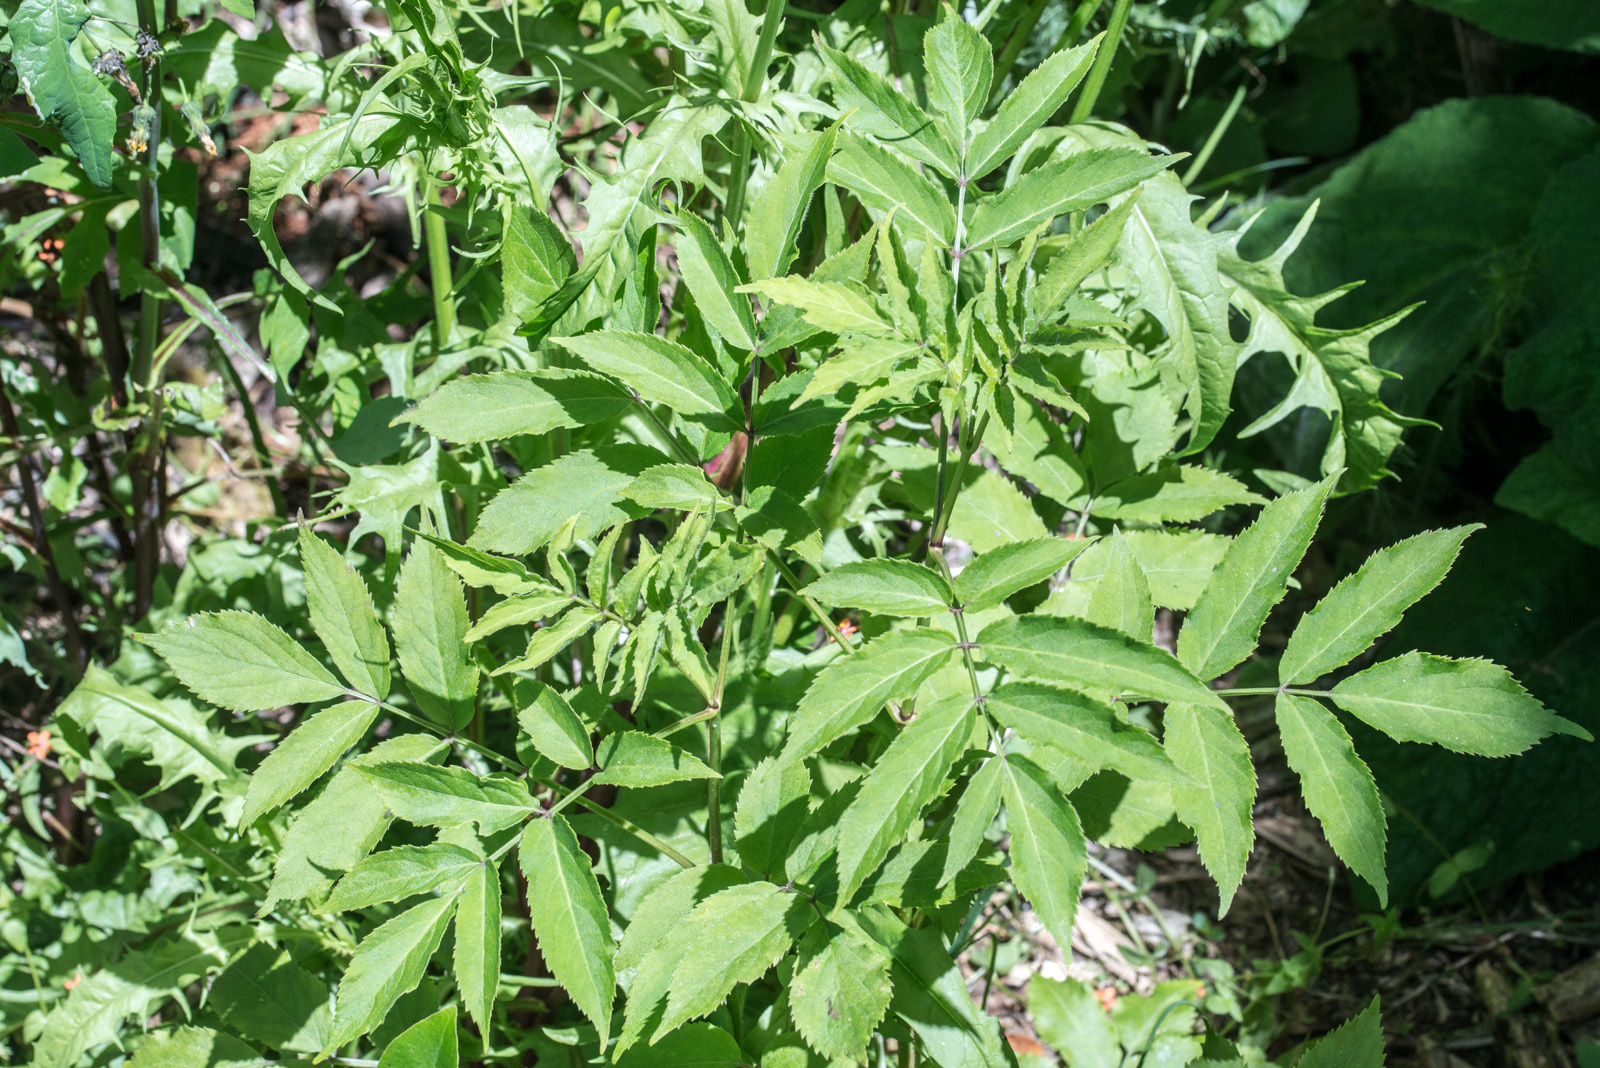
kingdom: Plantae
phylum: Tracheophyta
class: Magnoliopsida
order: Dipsacales
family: Viburnaceae
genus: Sambucus
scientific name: Sambucus nigra
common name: Elder
